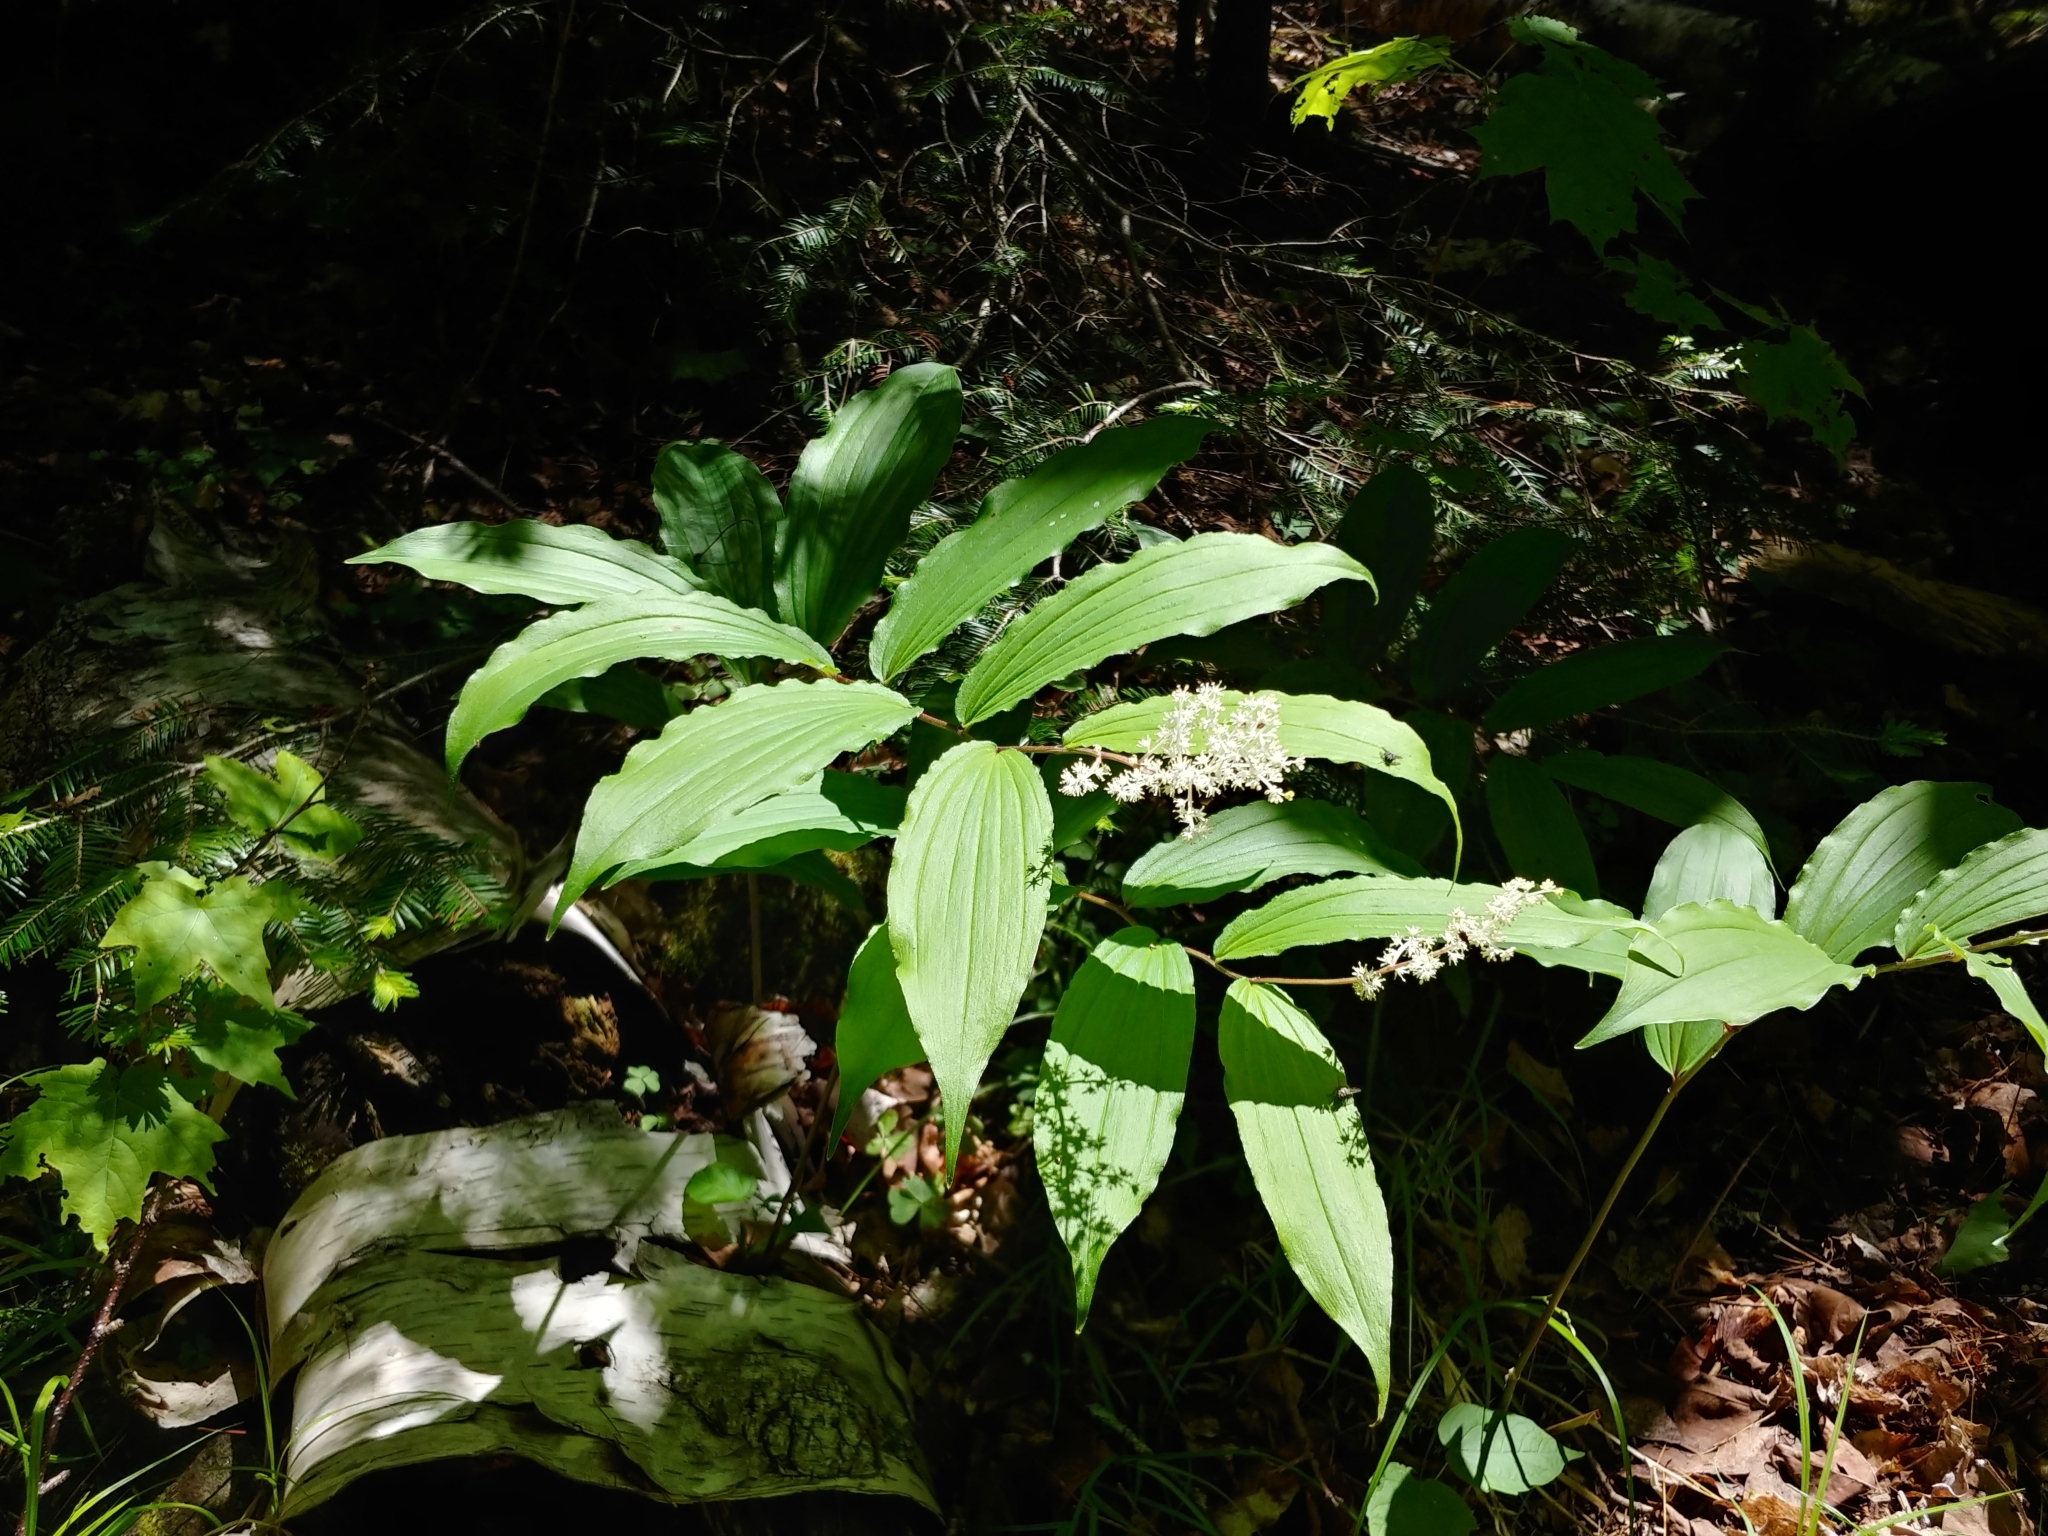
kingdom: Plantae
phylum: Tracheophyta
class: Liliopsida
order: Asparagales
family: Asparagaceae
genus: Maianthemum
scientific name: Maianthemum racemosum
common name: False spikenard
